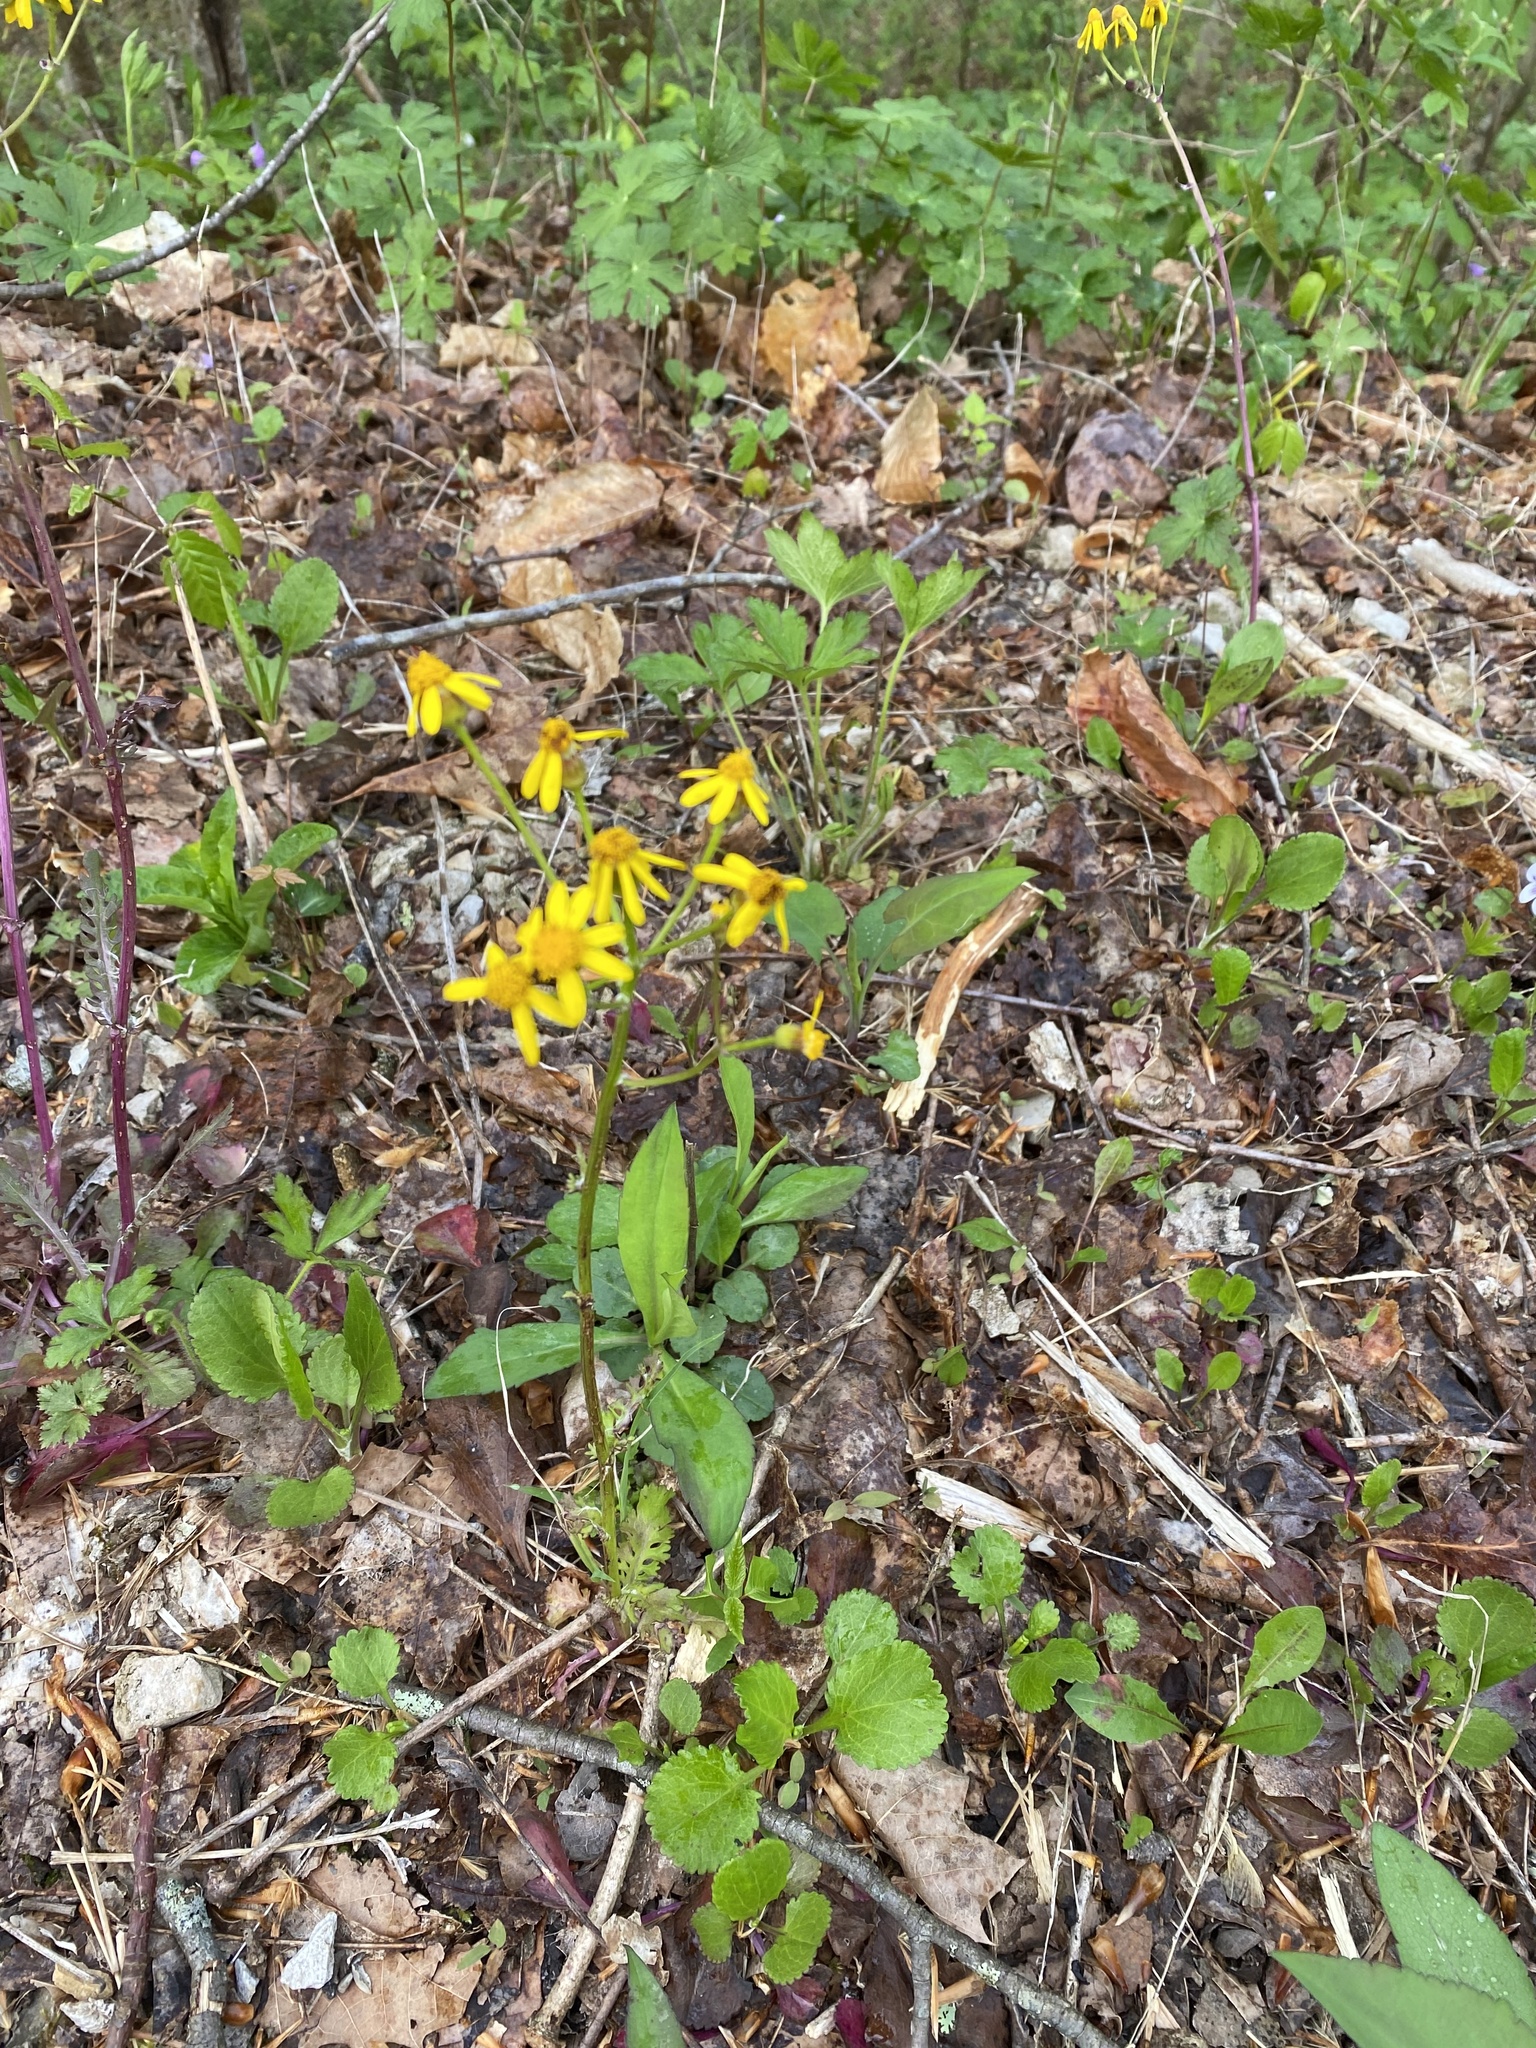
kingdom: Plantae
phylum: Tracheophyta
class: Magnoliopsida
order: Asterales
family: Asteraceae
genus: Packera
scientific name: Packera obovata
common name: Round-leaf ragwort
